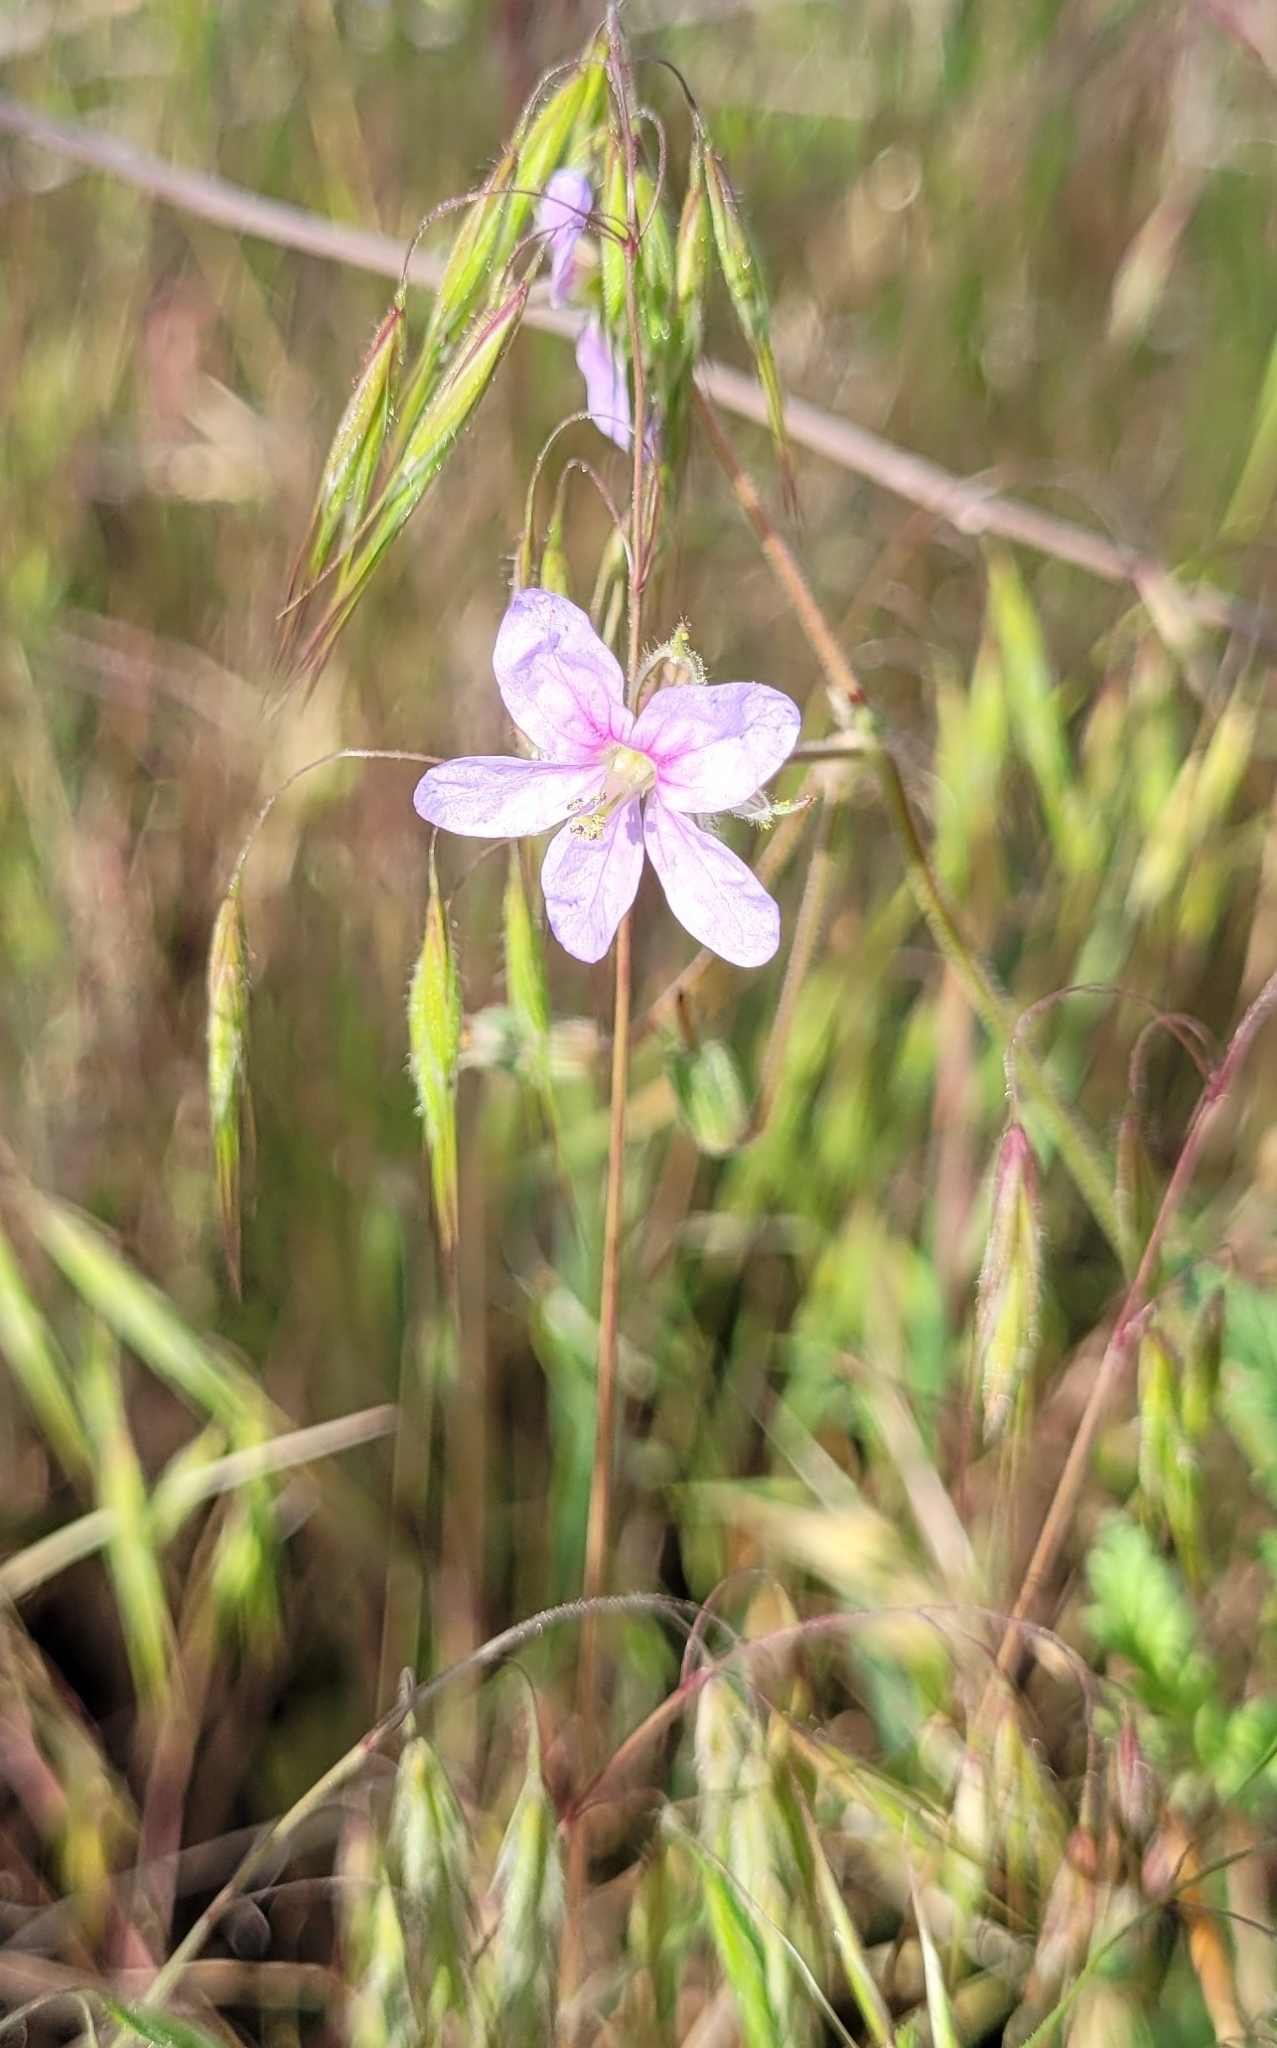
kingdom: Plantae
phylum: Tracheophyta
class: Magnoliopsida
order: Geraniales
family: Geraniaceae
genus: Erodium
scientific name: Erodium cicutarium
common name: Common stork's-bill
